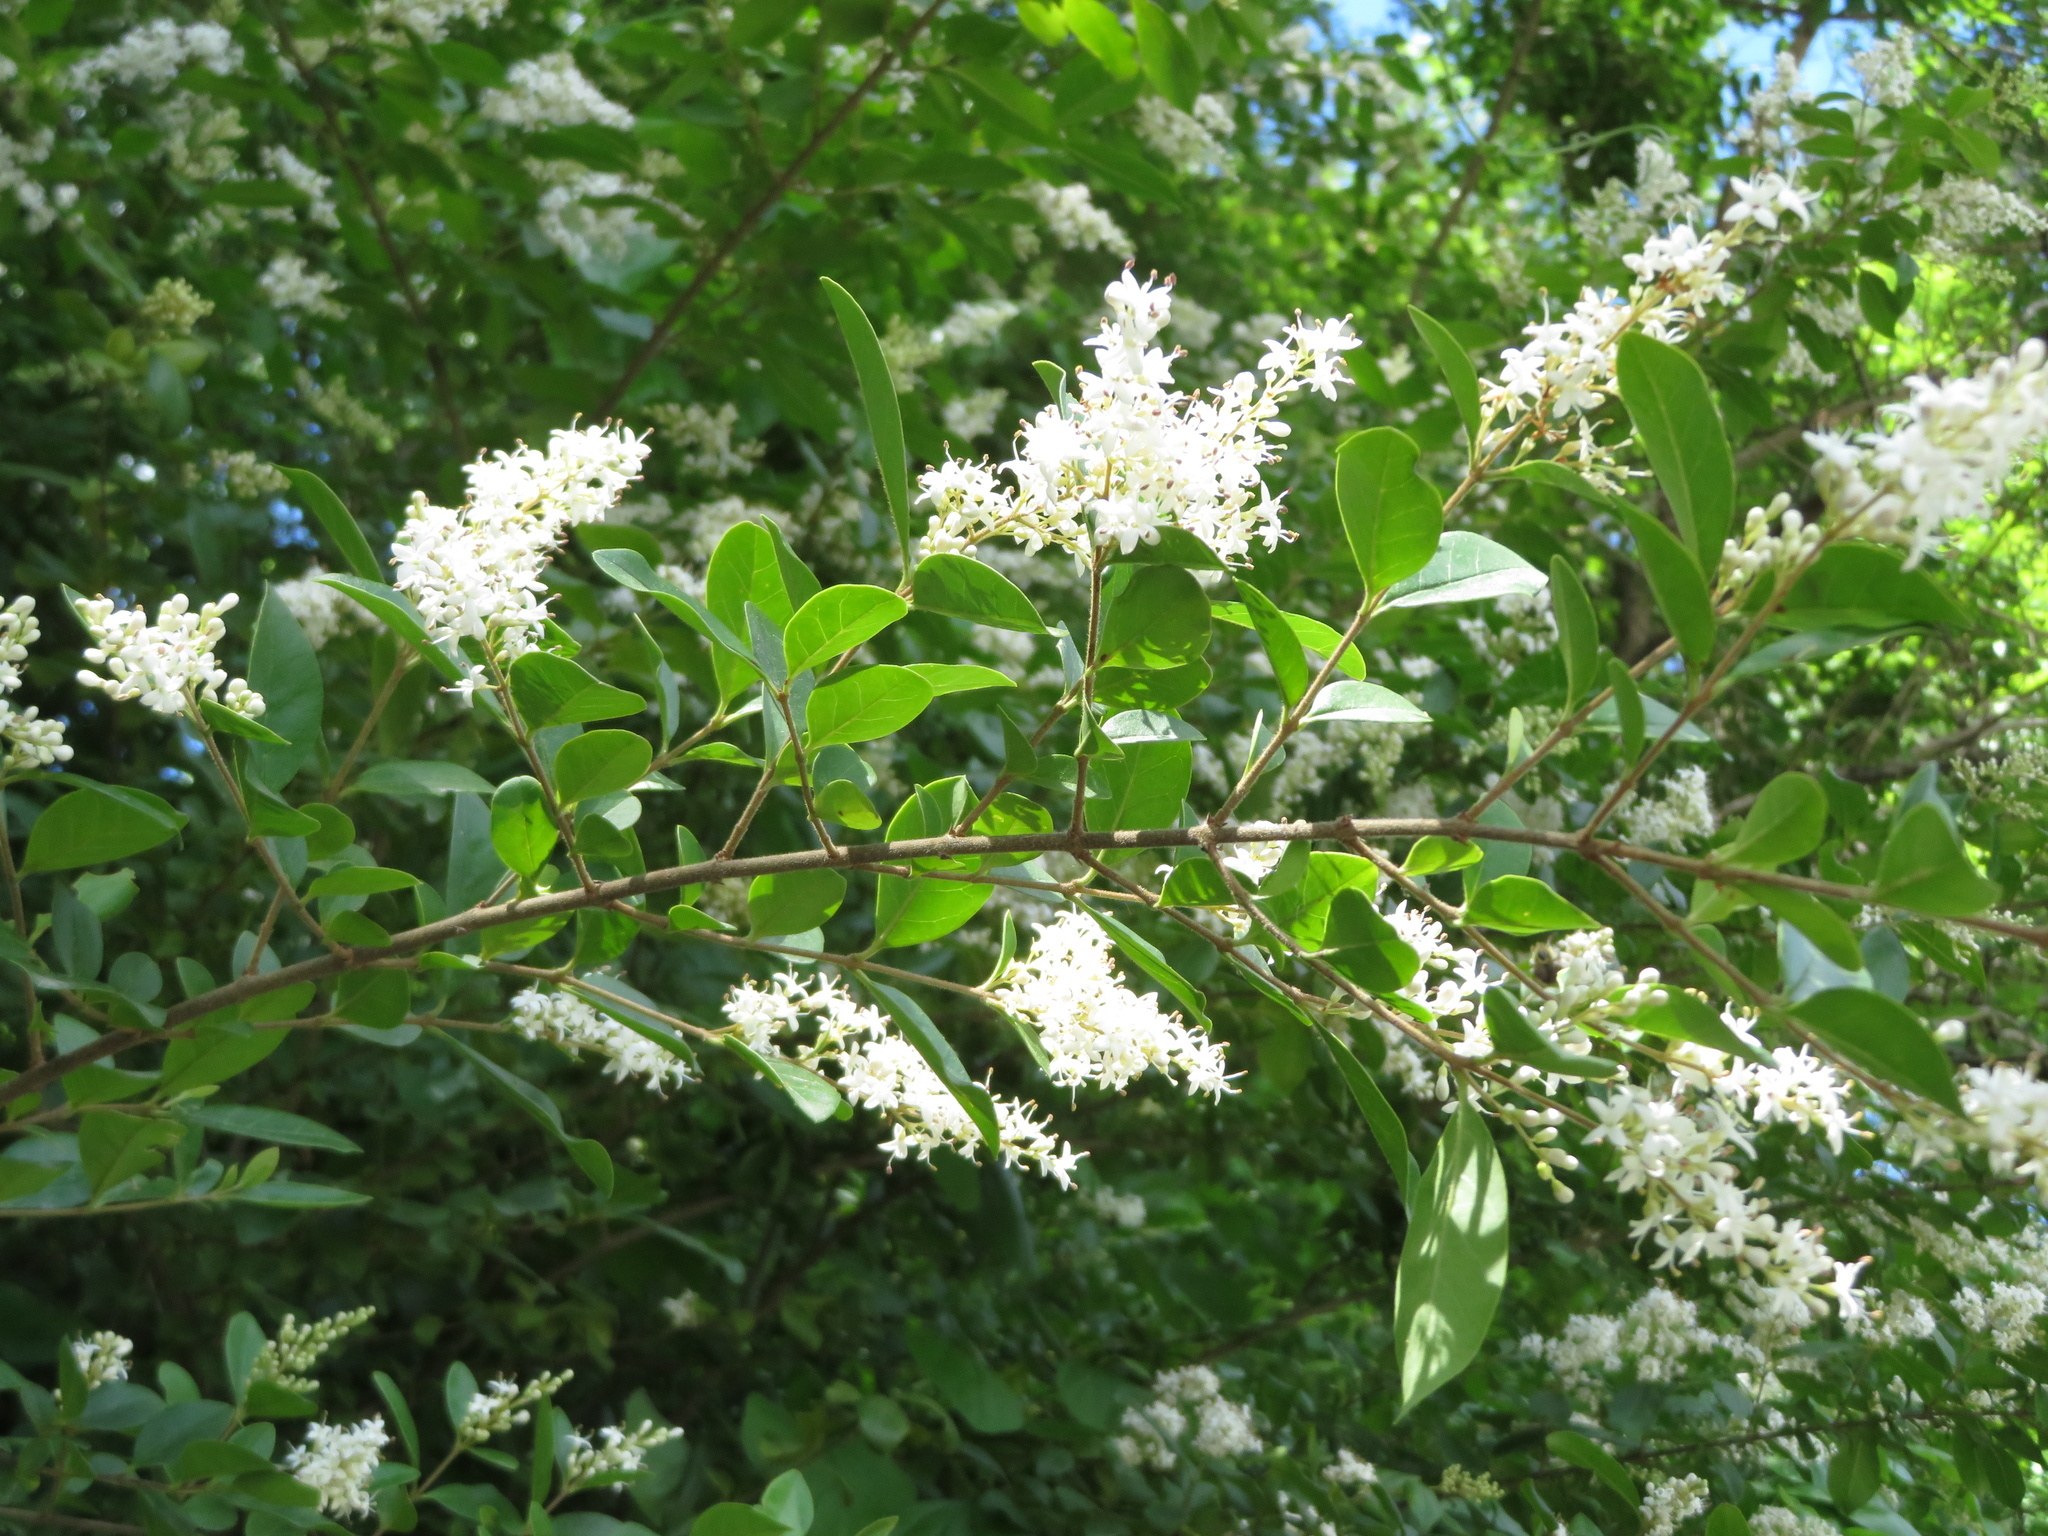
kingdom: Plantae
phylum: Tracheophyta
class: Magnoliopsida
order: Lamiales
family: Oleaceae
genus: Ligustrum
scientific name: Ligustrum sinense
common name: Chinese privet
